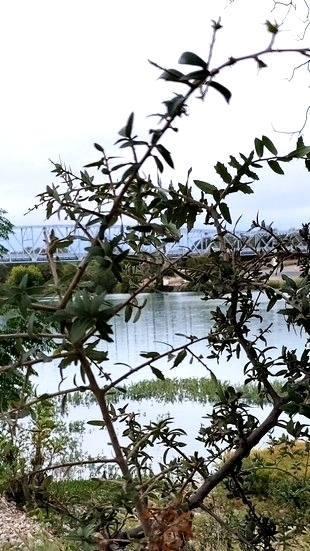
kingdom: Plantae
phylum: Tracheophyta
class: Magnoliopsida
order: Fagales
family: Fagaceae
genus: Quercus
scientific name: Quercus fusiformis
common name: Texas live oak
